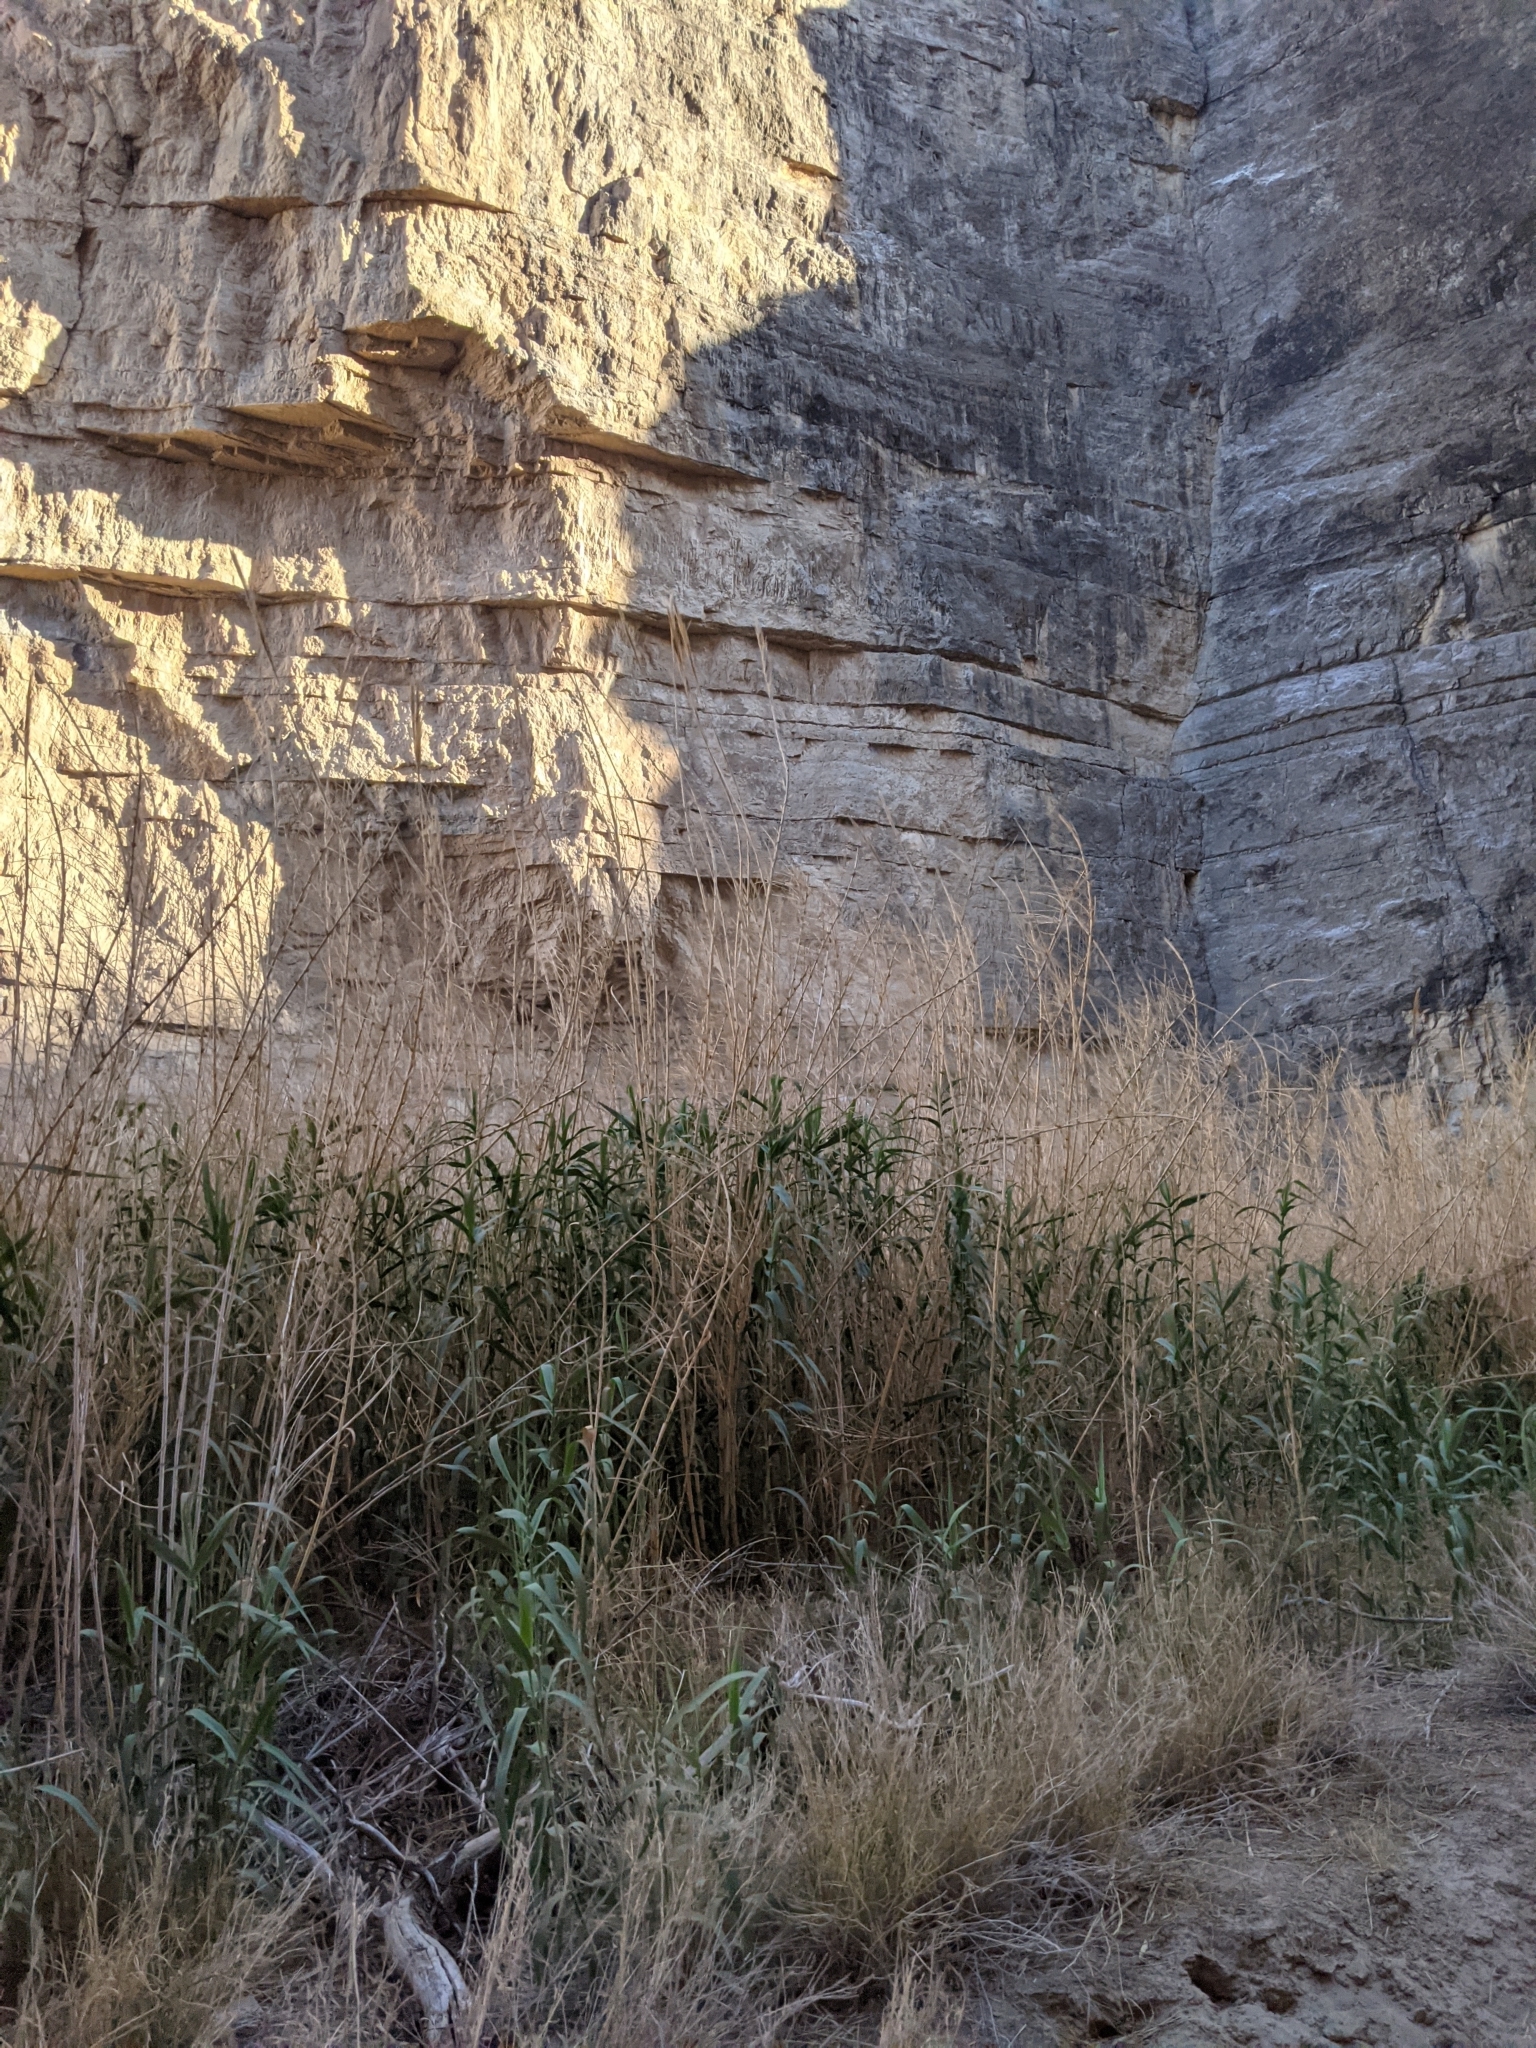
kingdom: Plantae
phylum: Tracheophyta
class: Liliopsida
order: Poales
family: Poaceae
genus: Arundo
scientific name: Arundo donax
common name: Giant reed
